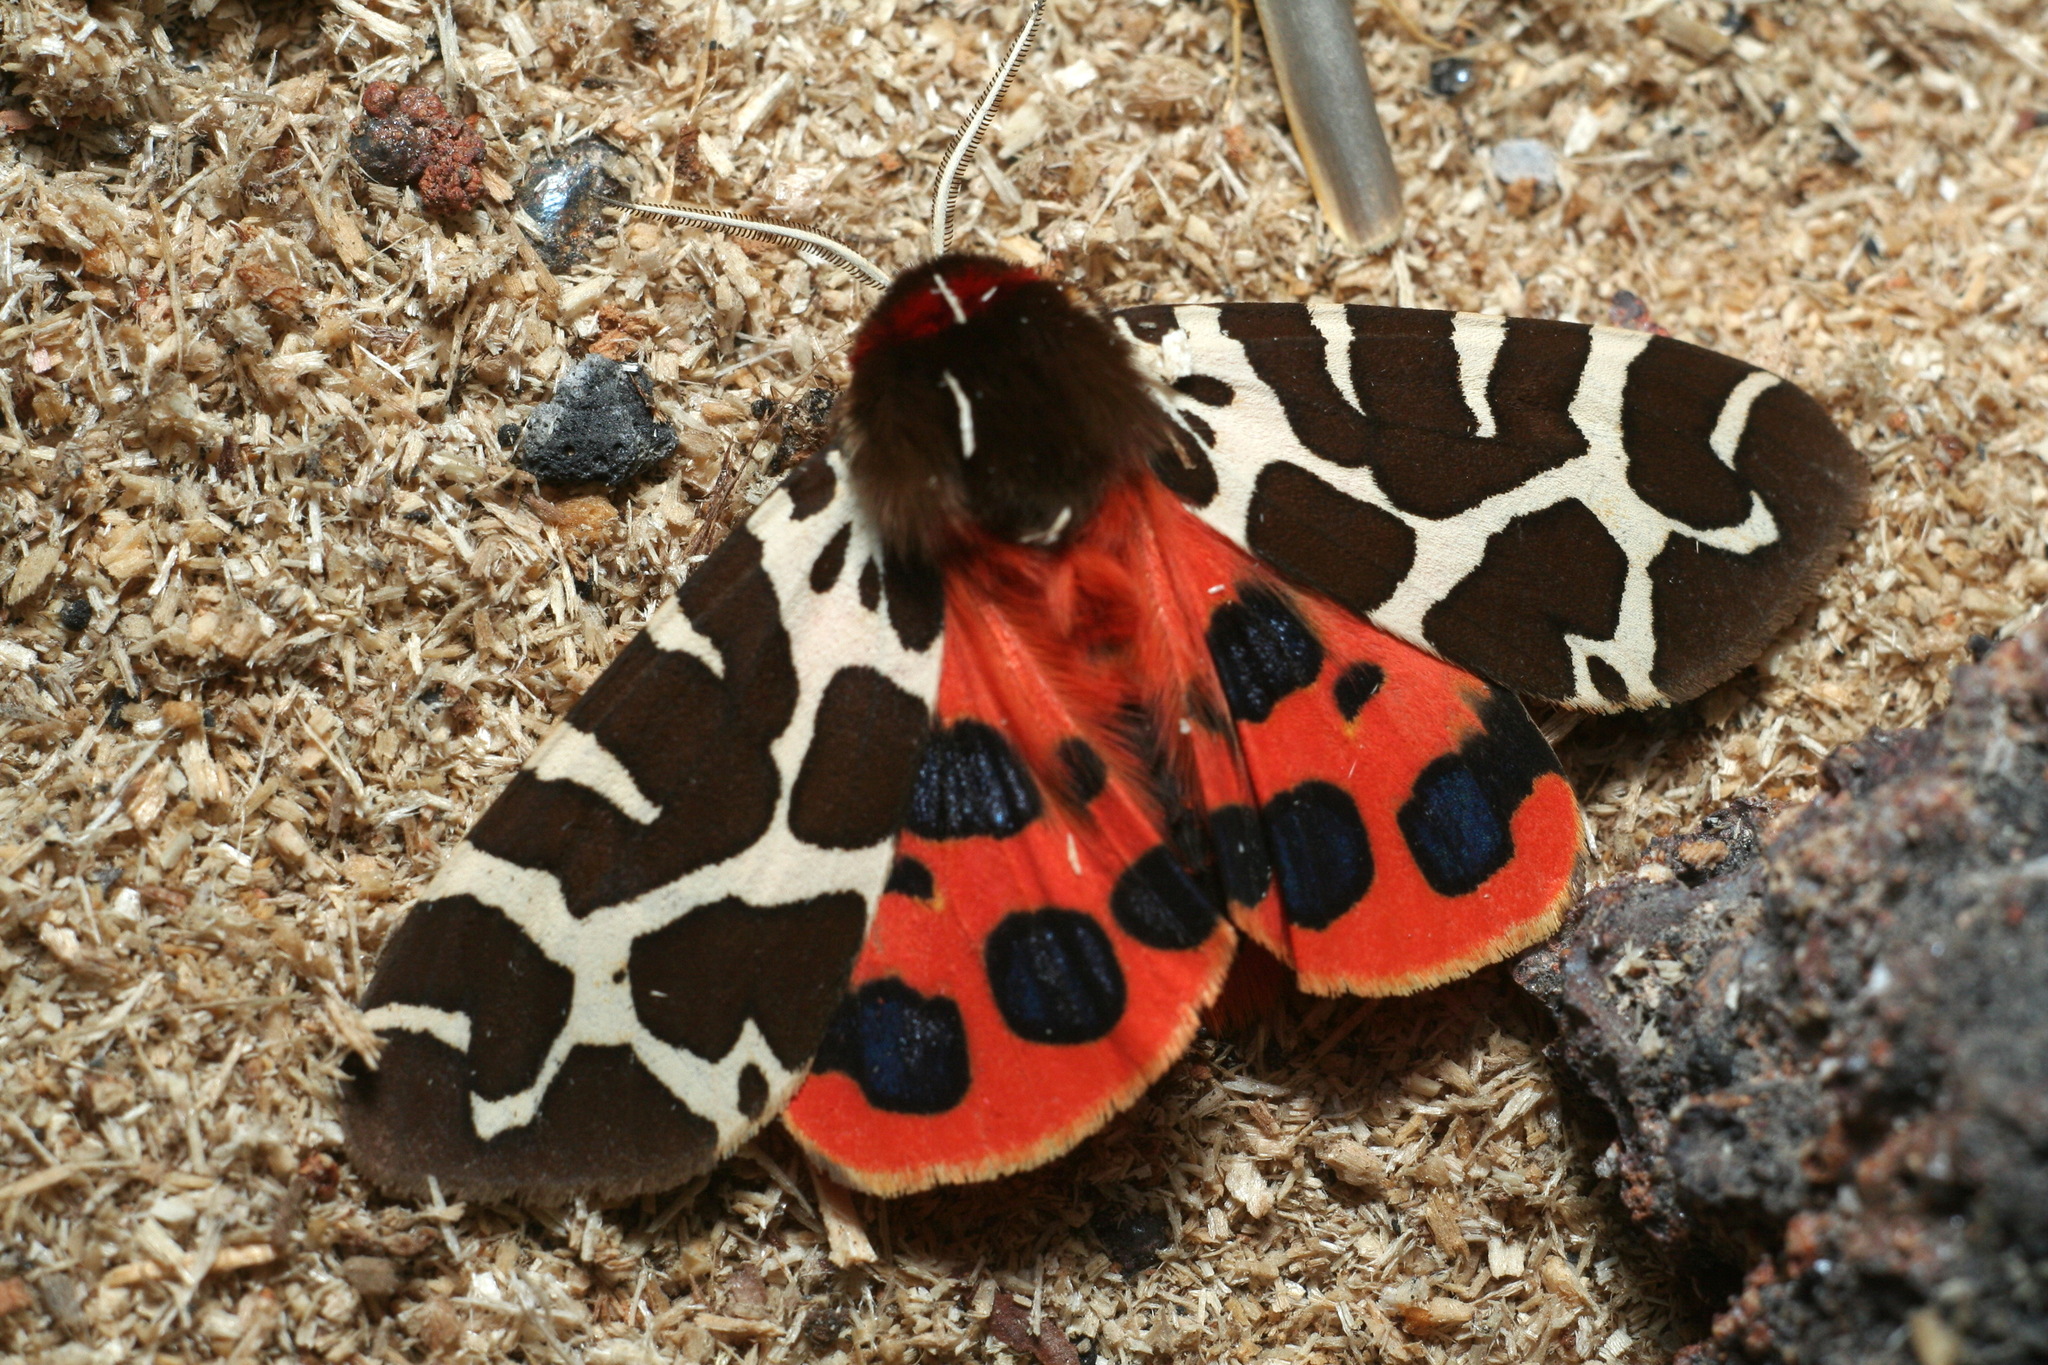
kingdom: Animalia
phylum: Arthropoda
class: Insecta
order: Lepidoptera
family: Erebidae
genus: Arctia
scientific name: Arctia caja
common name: Garden tiger
